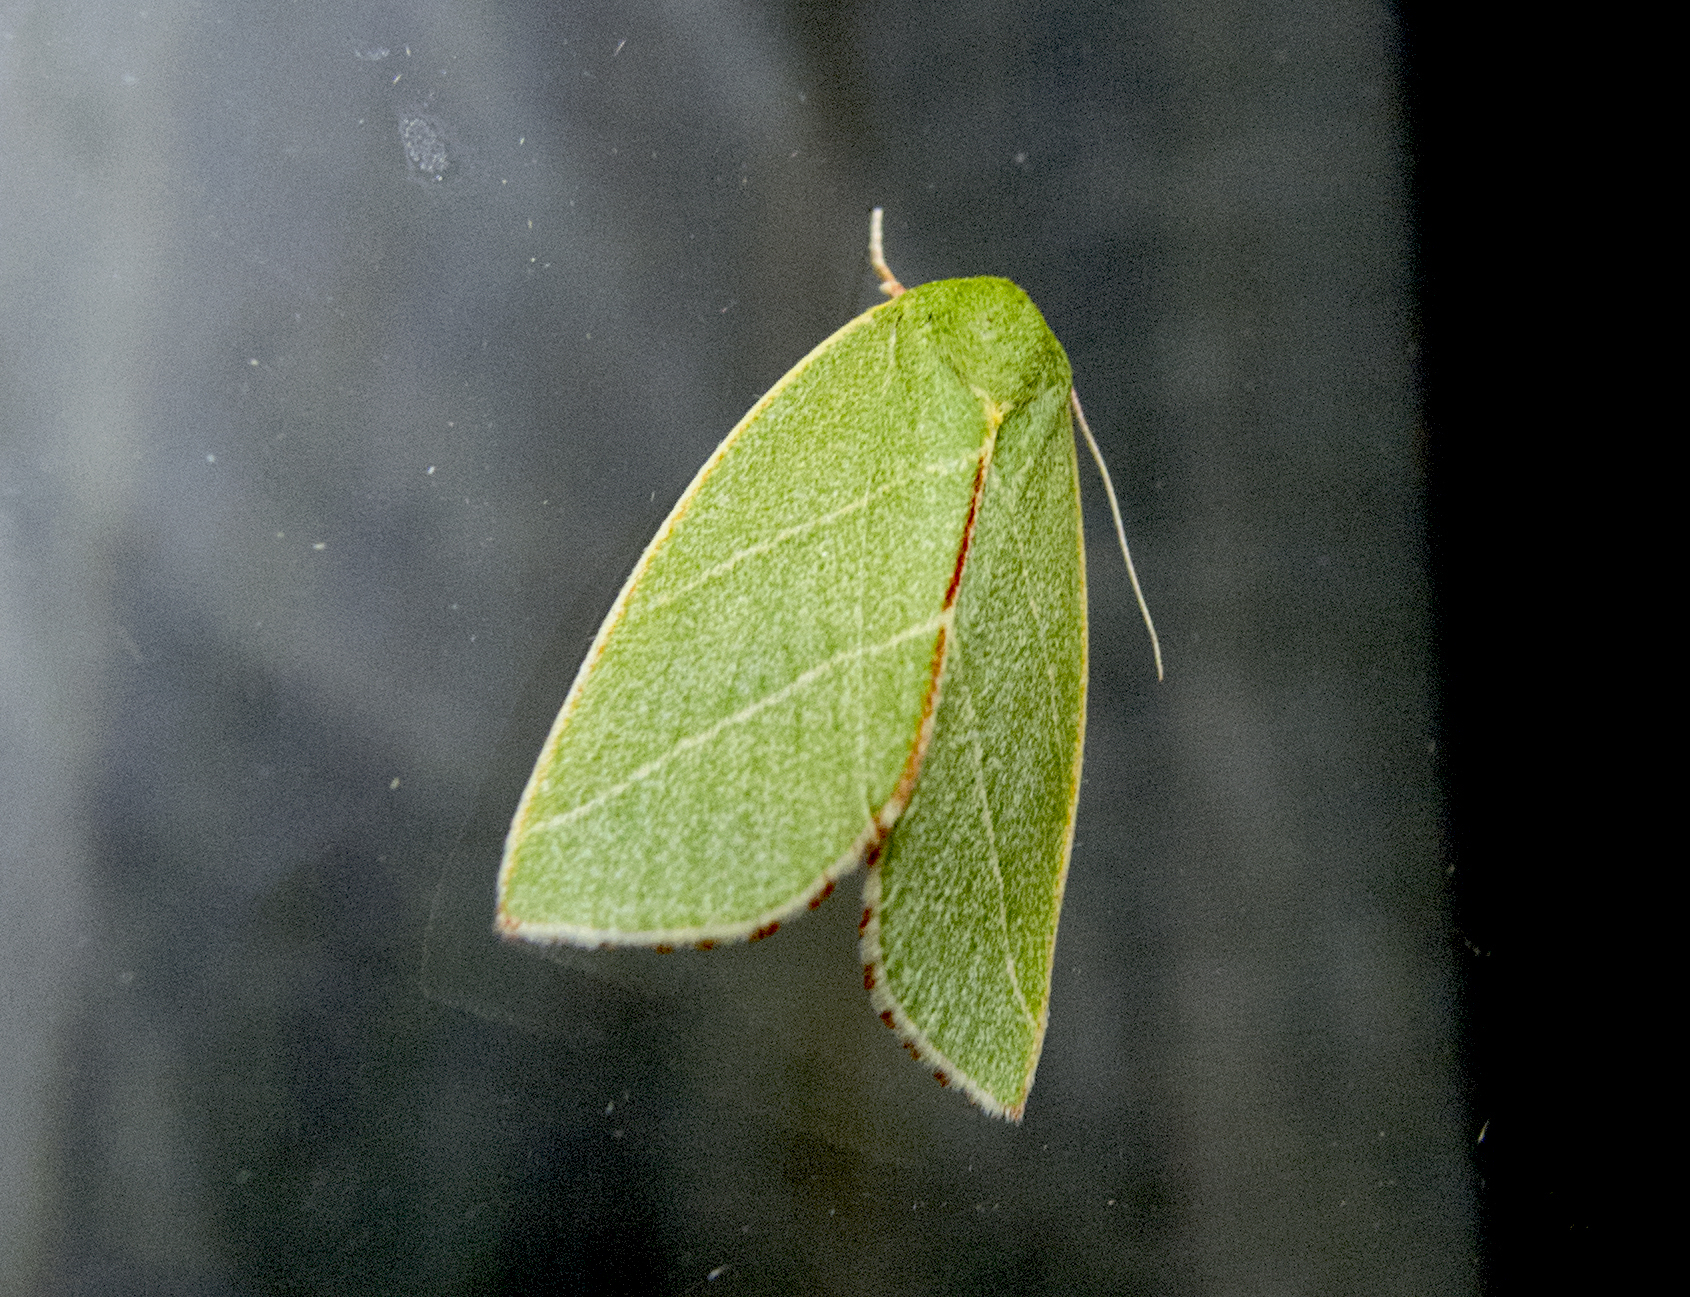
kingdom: Animalia
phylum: Arthropoda
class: Insecta
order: Lepidoptera
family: Nolidae
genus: Bena
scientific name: Bena bicolorana
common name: Scarce silver-lines
